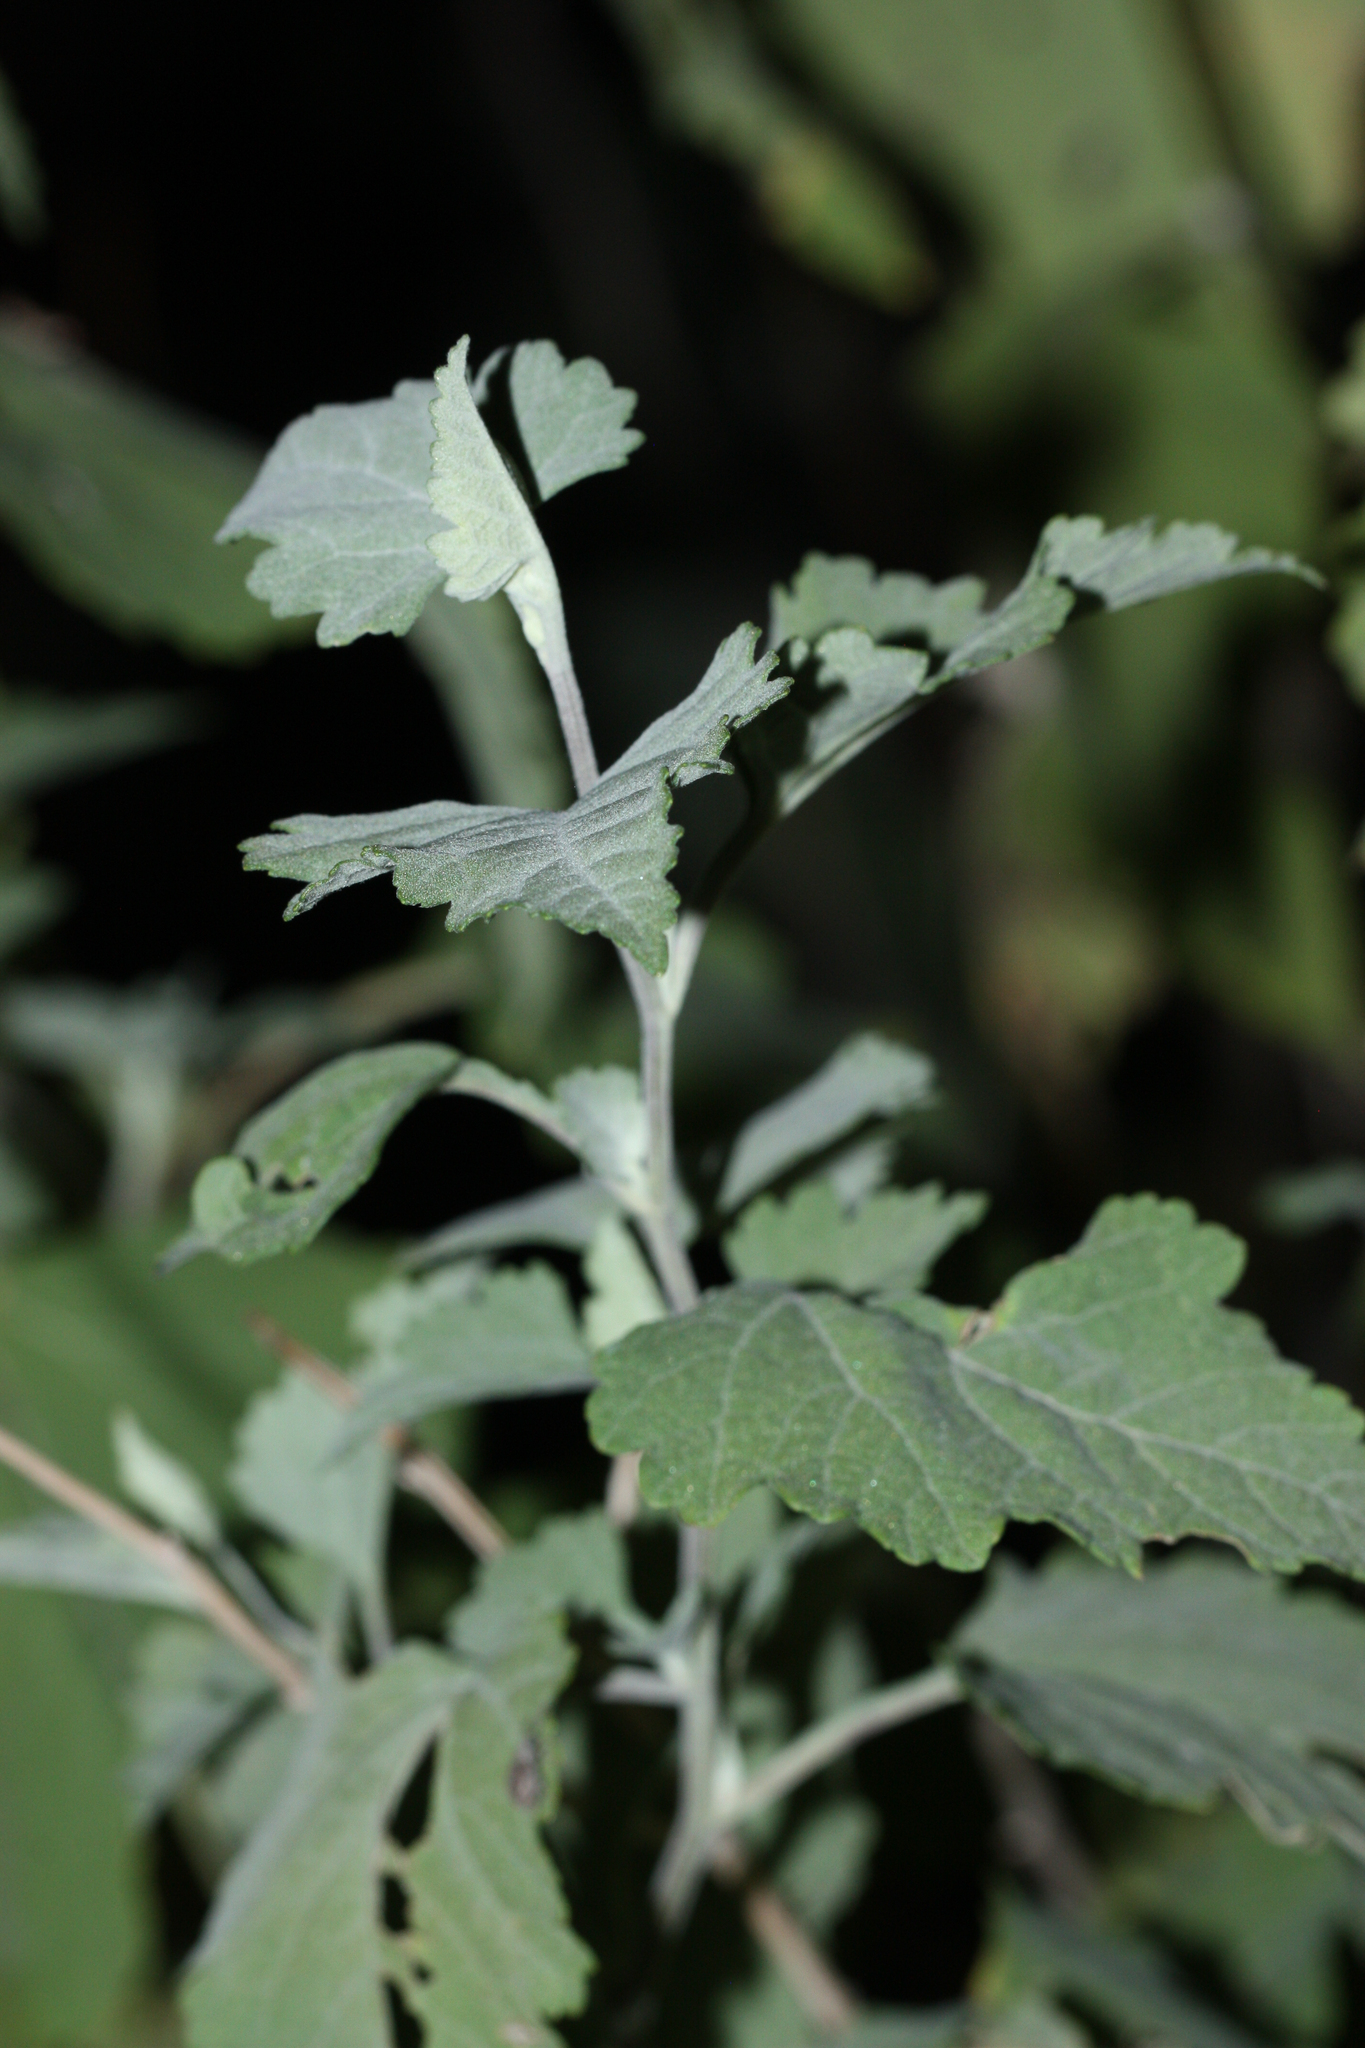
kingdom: Plantae
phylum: Tracheophyta
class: Magnoliopsida
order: Asterales
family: Asteraceae
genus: Ambrosia
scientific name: Ambrosia cordifolia
